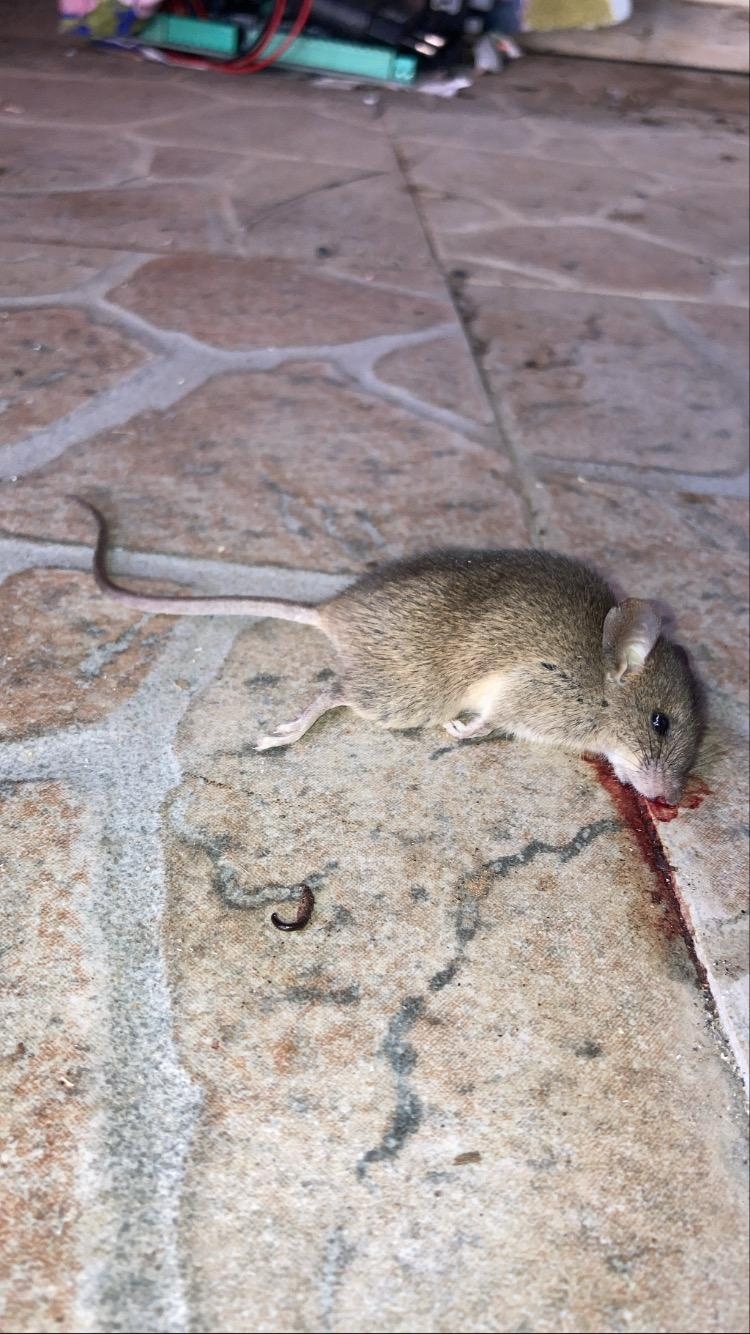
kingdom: Animalia
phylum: Chordata
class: Mammalia
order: Rodentia
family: Muridae
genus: Mus
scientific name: Mus musculus
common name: House mouse
